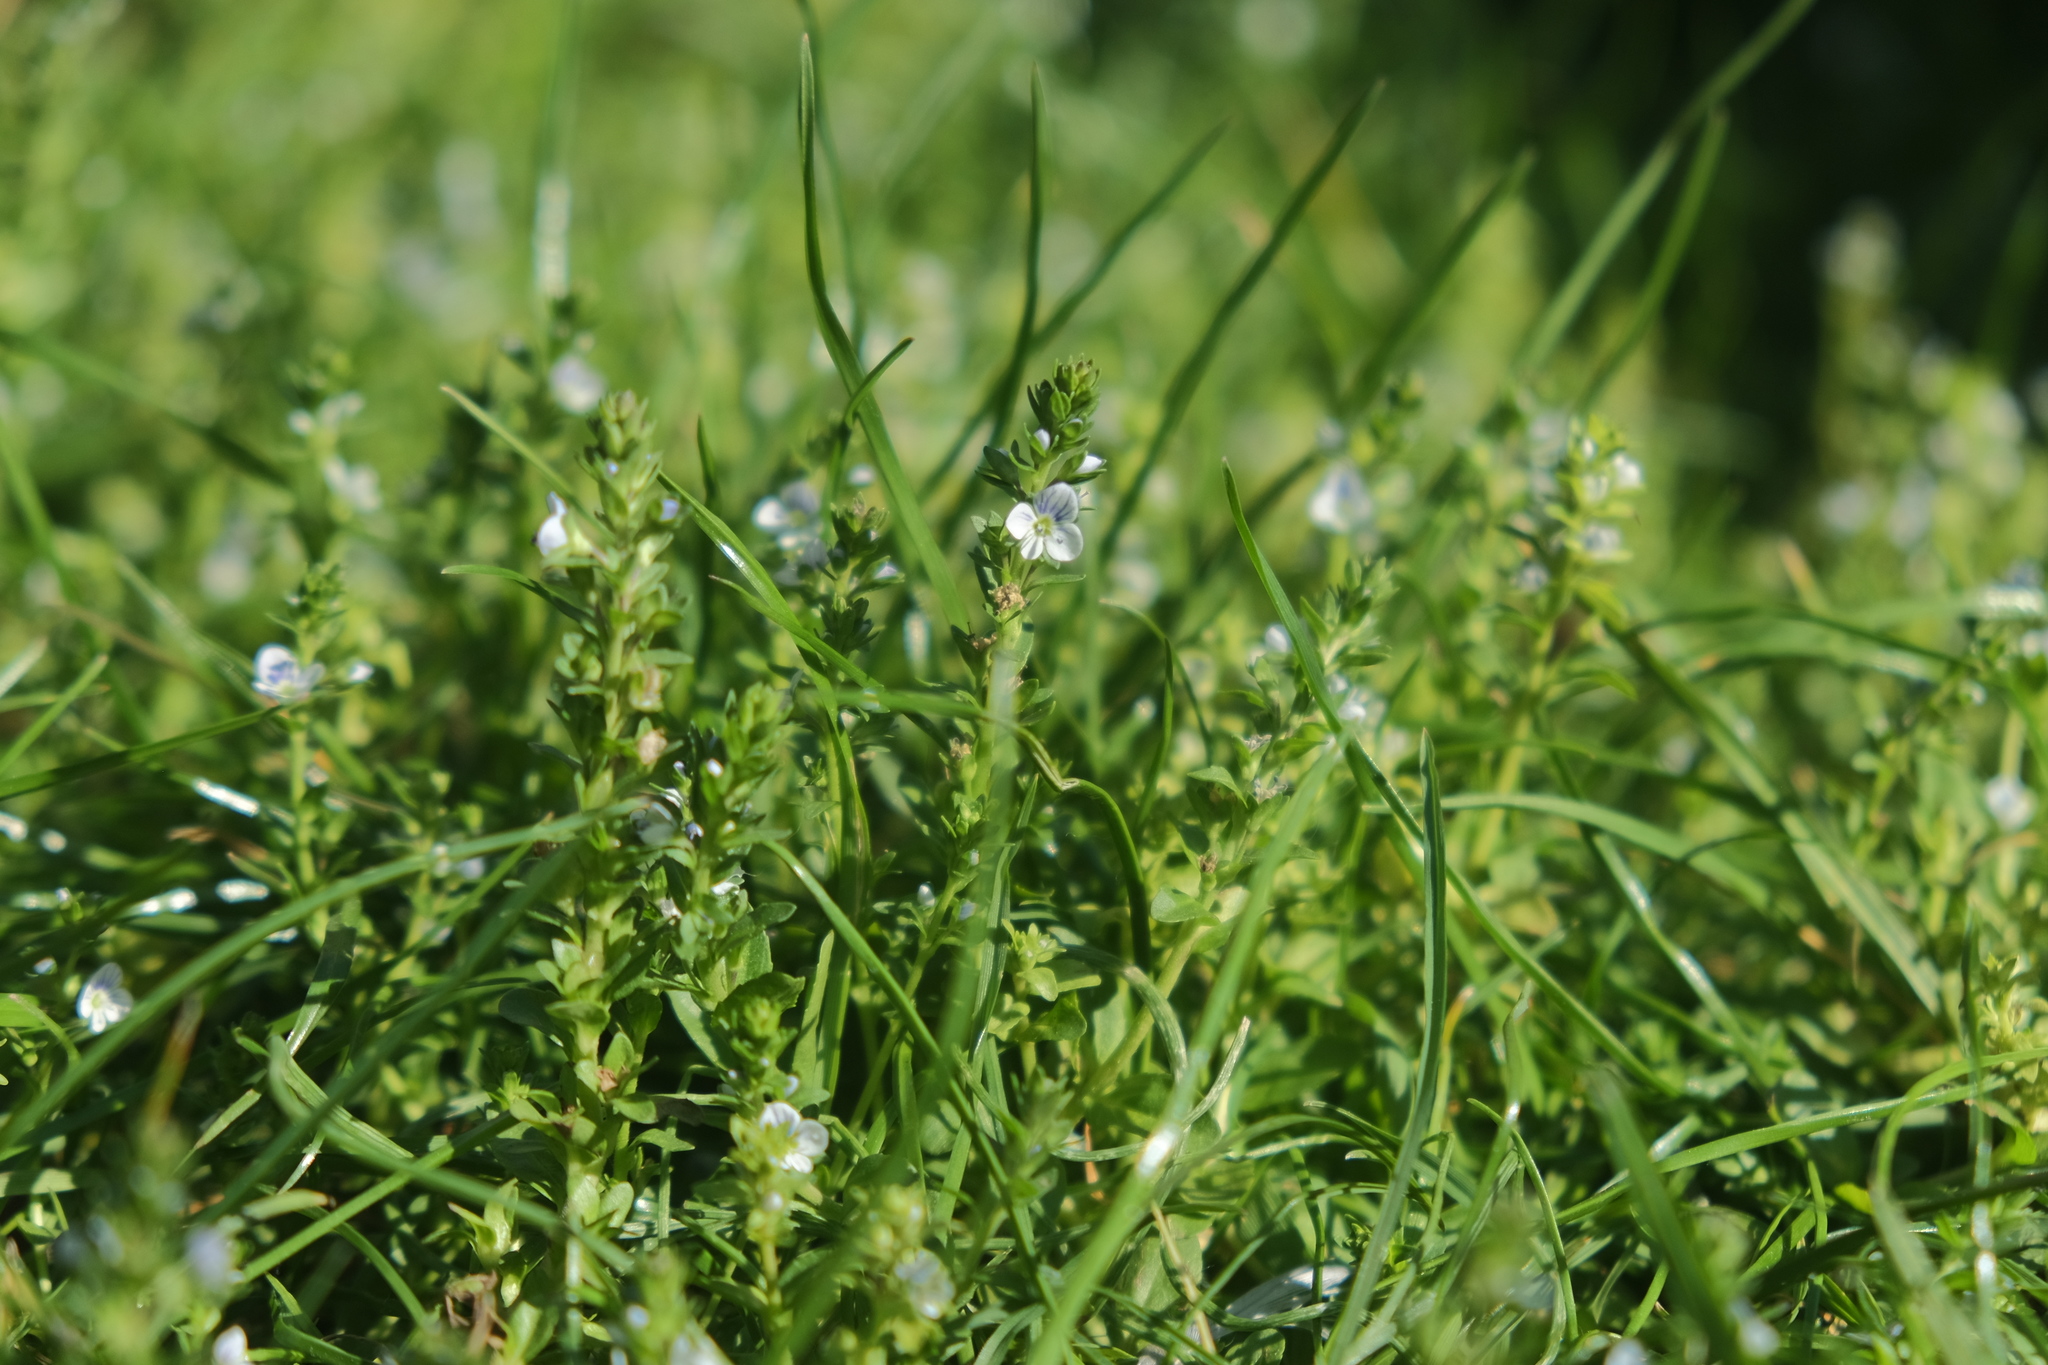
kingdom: Plantae
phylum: Tracheophyta
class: Magnoliopsida
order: Lamiales
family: Plantaginaceae
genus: Veronica
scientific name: Veronica serpyllifolia
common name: Thyme-leaved speedwell
